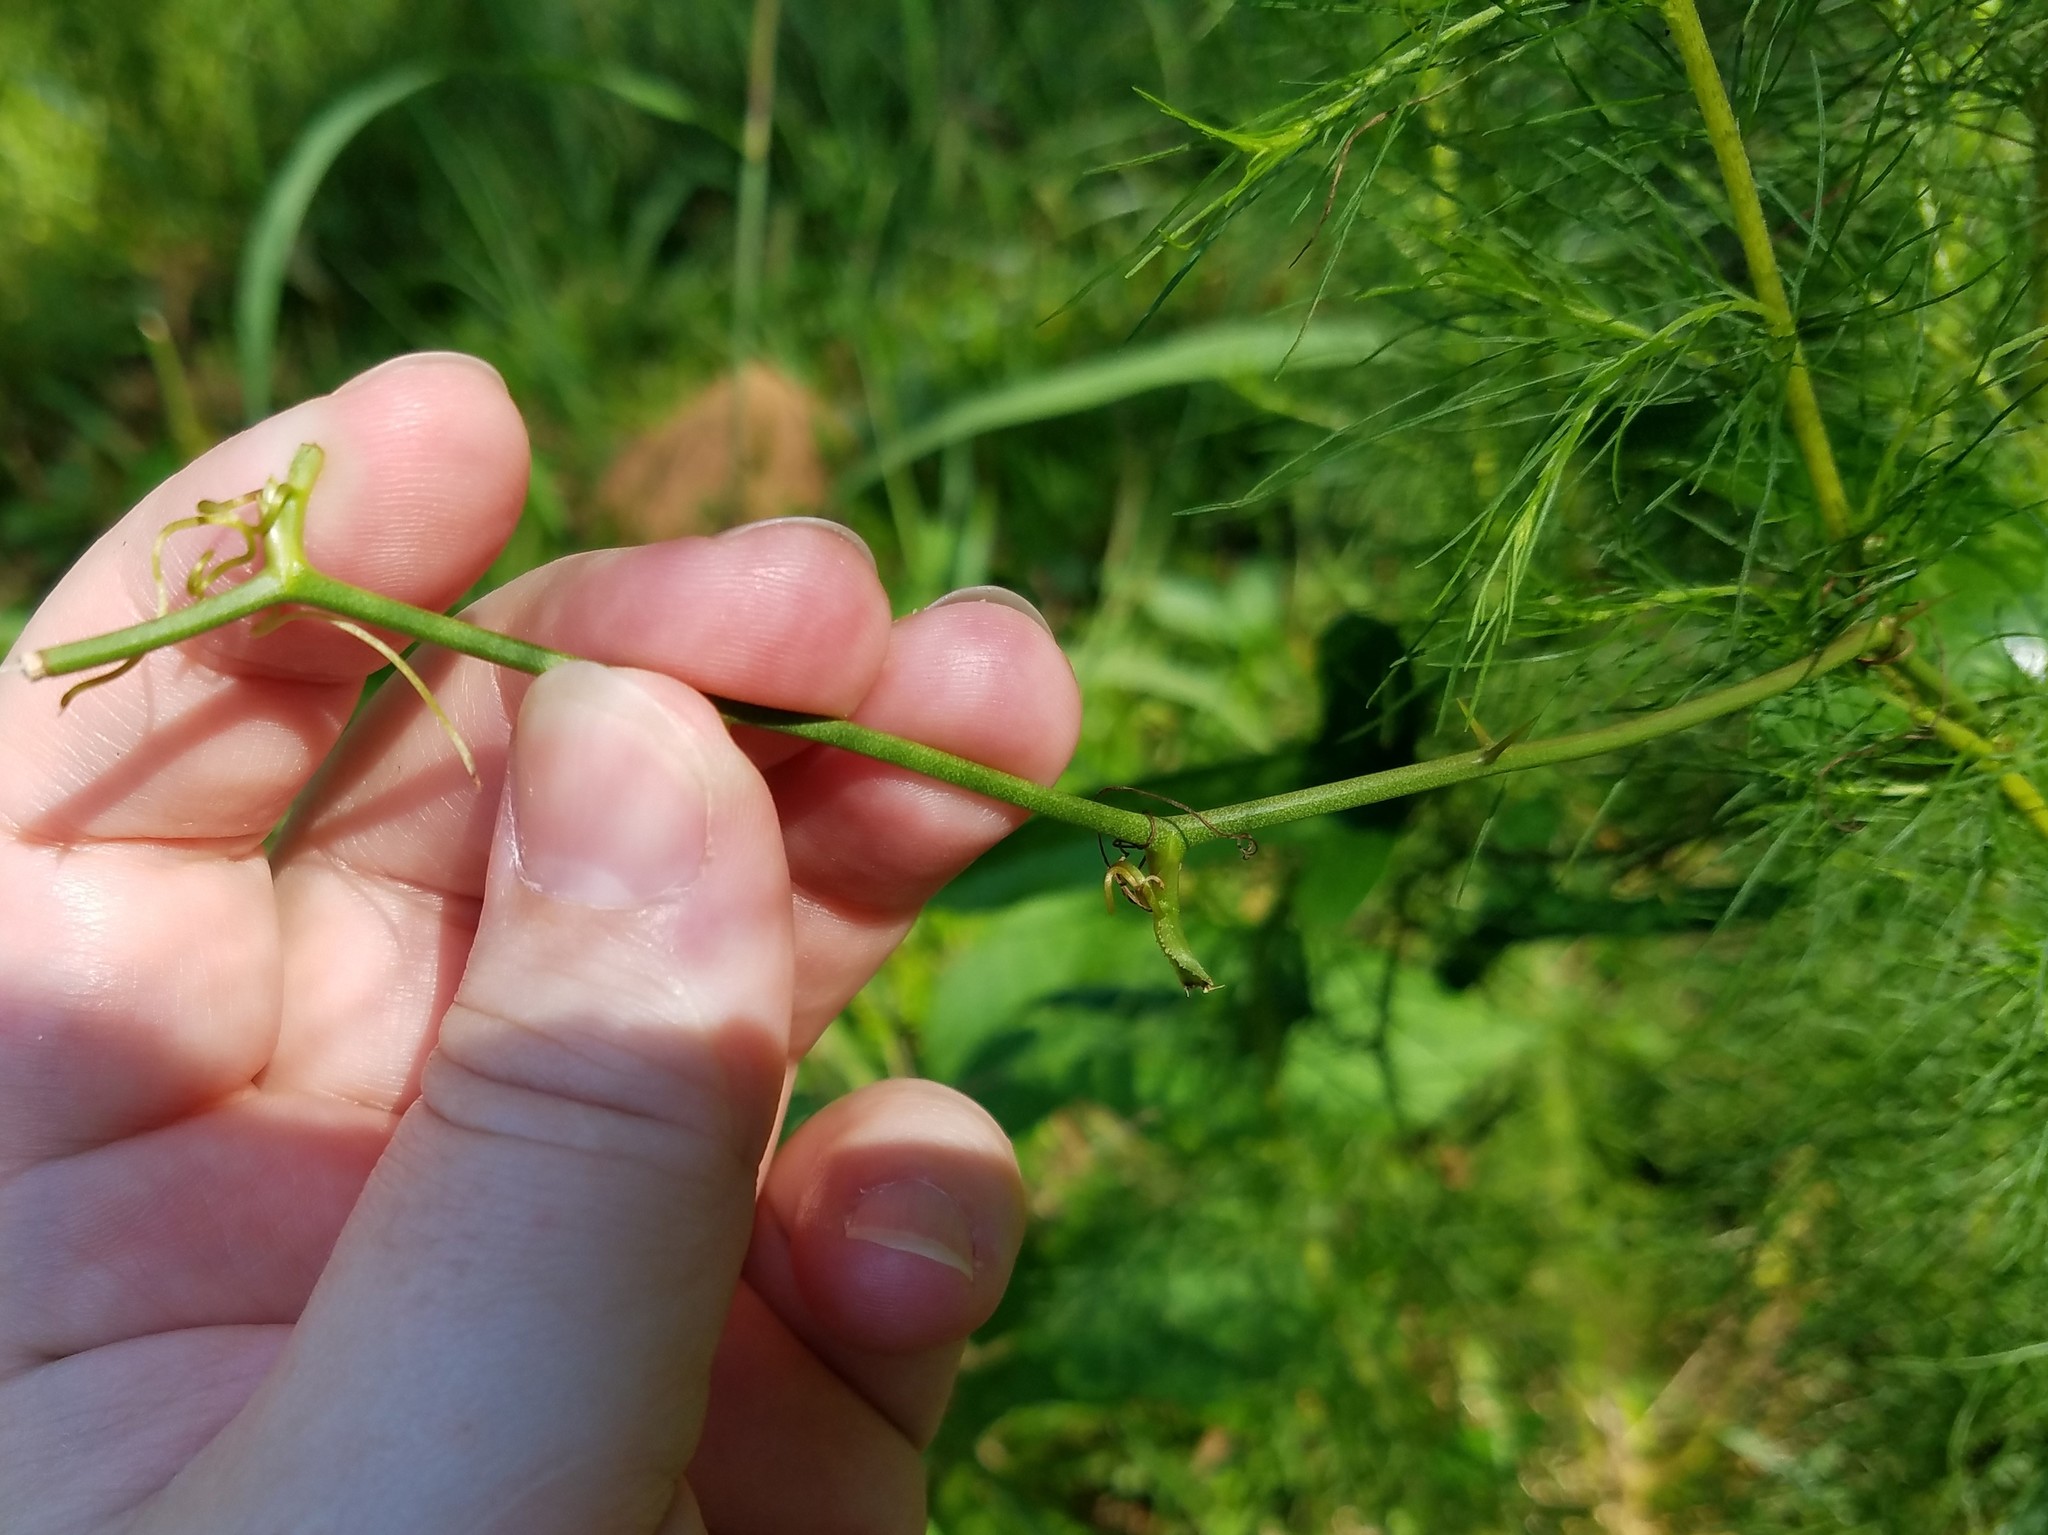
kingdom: Plantae
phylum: Tracheophyta
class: Liliopsida
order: Liliales
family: Smilacaceae
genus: Smilax
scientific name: Smilax bona-nox
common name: Catbrier
